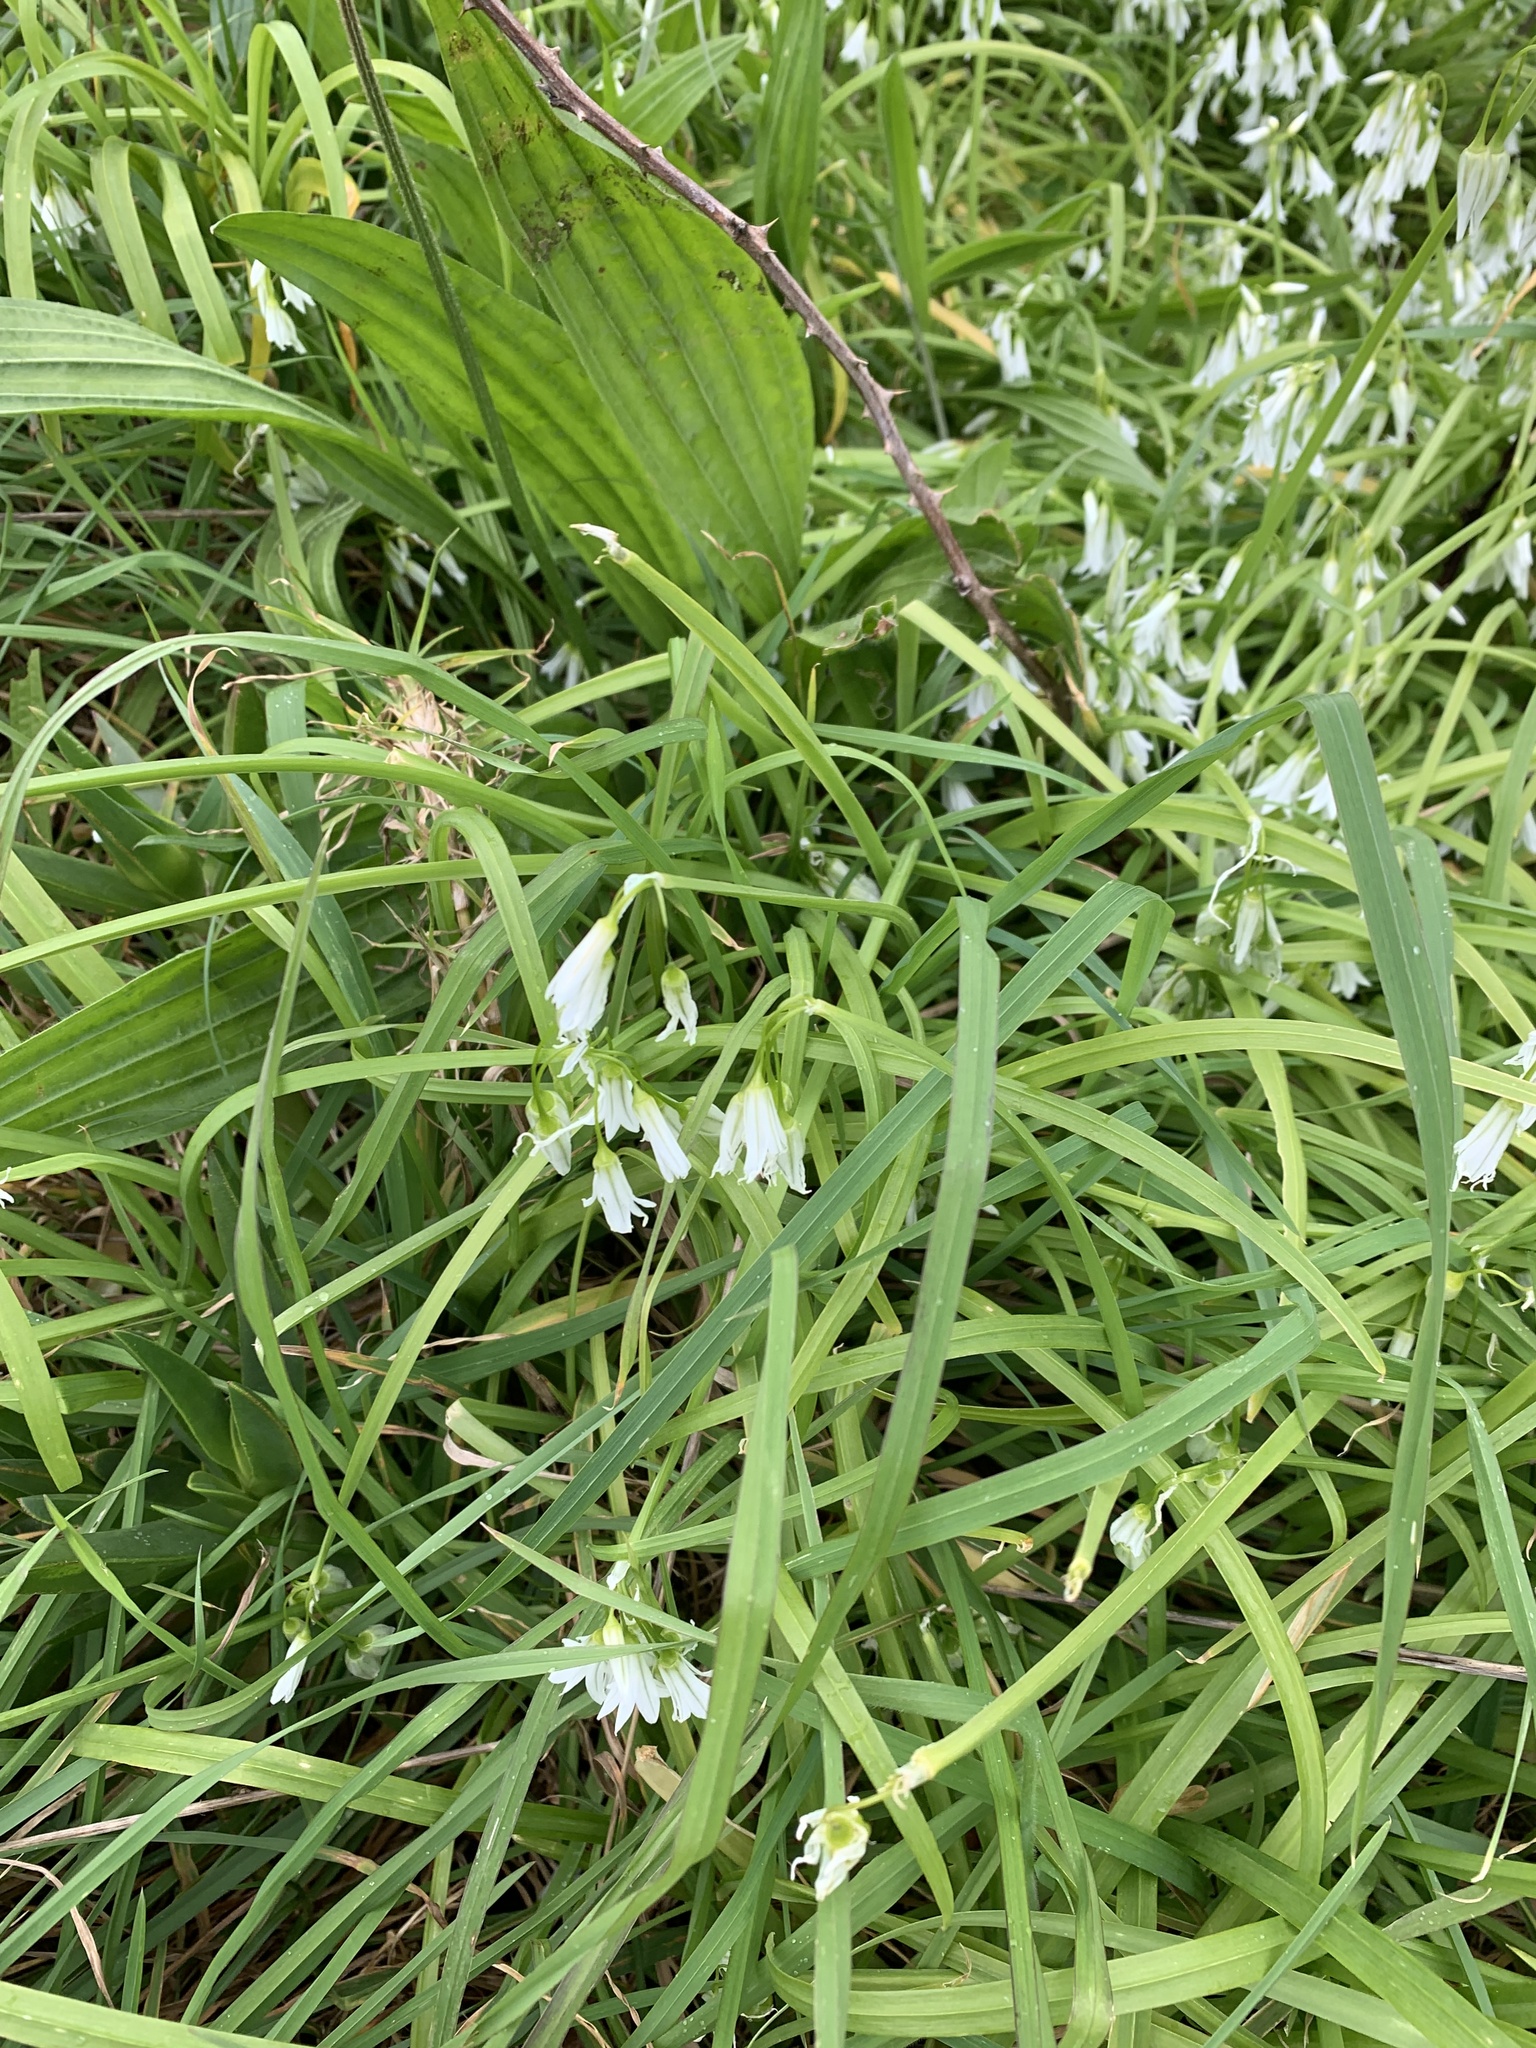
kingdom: Plantae
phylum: Tracheophyta
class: Liliopsida
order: Asparagales
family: Amaryllidaceae
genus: Allium
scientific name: Allium triquetrum
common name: Three-cornered garlic
